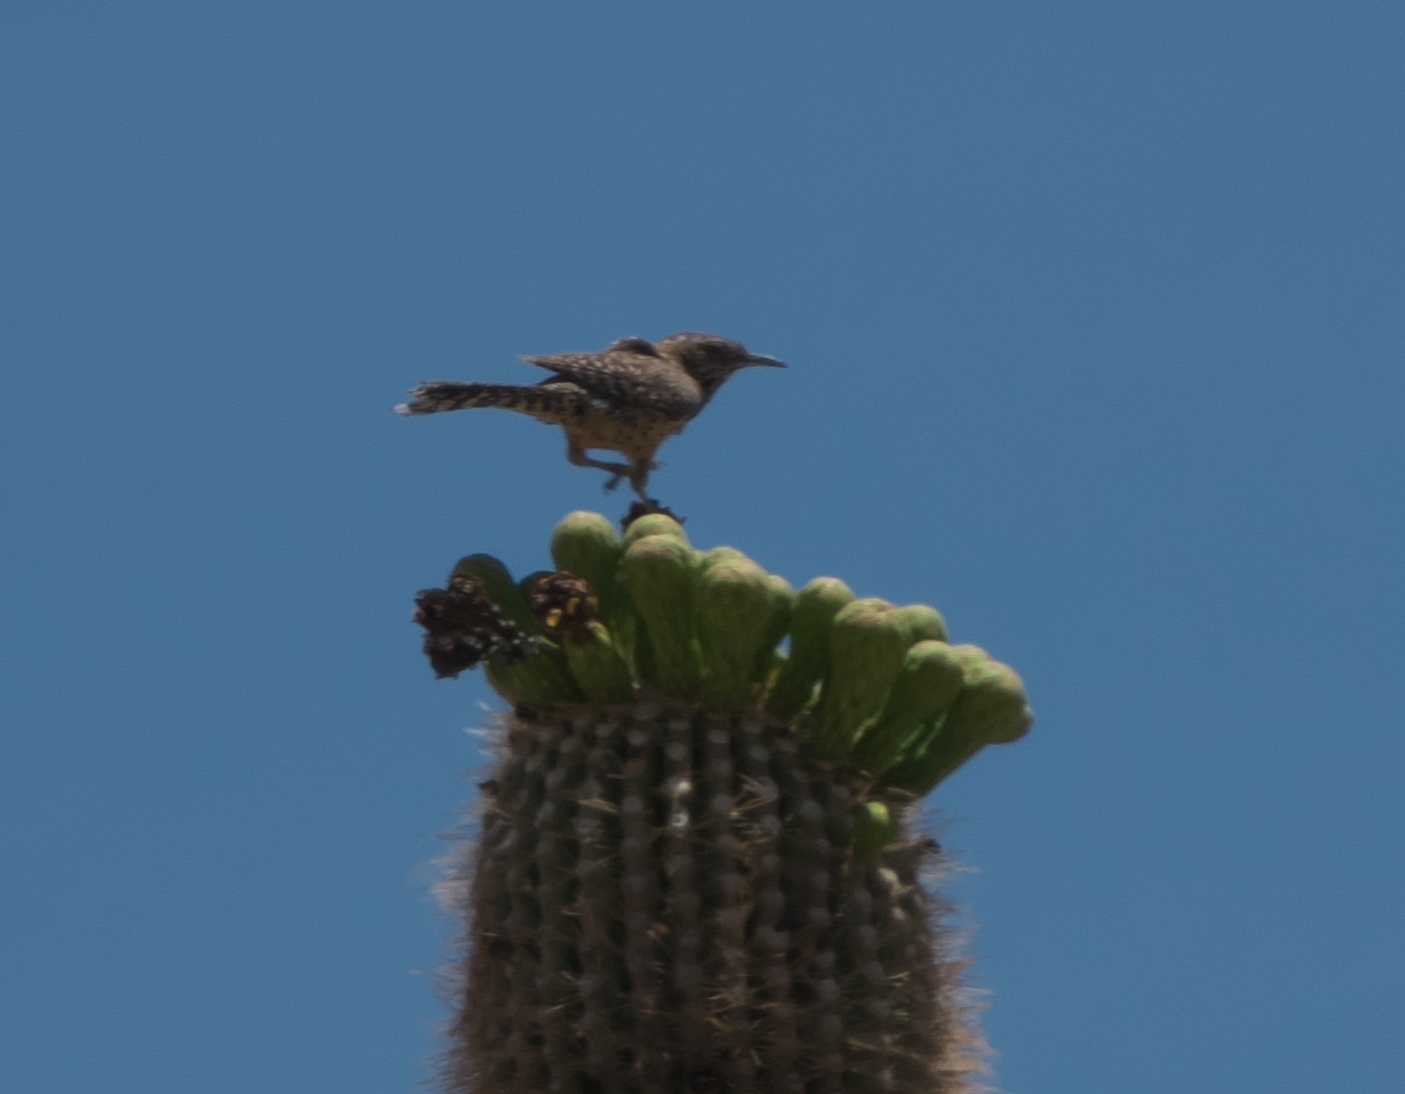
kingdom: Animalia
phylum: Chordata
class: Aves
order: Passeriformes
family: Troglodytidae
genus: Campylorhynchus
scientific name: Campylorhynchus brunneicapillus
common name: Cactus wren
